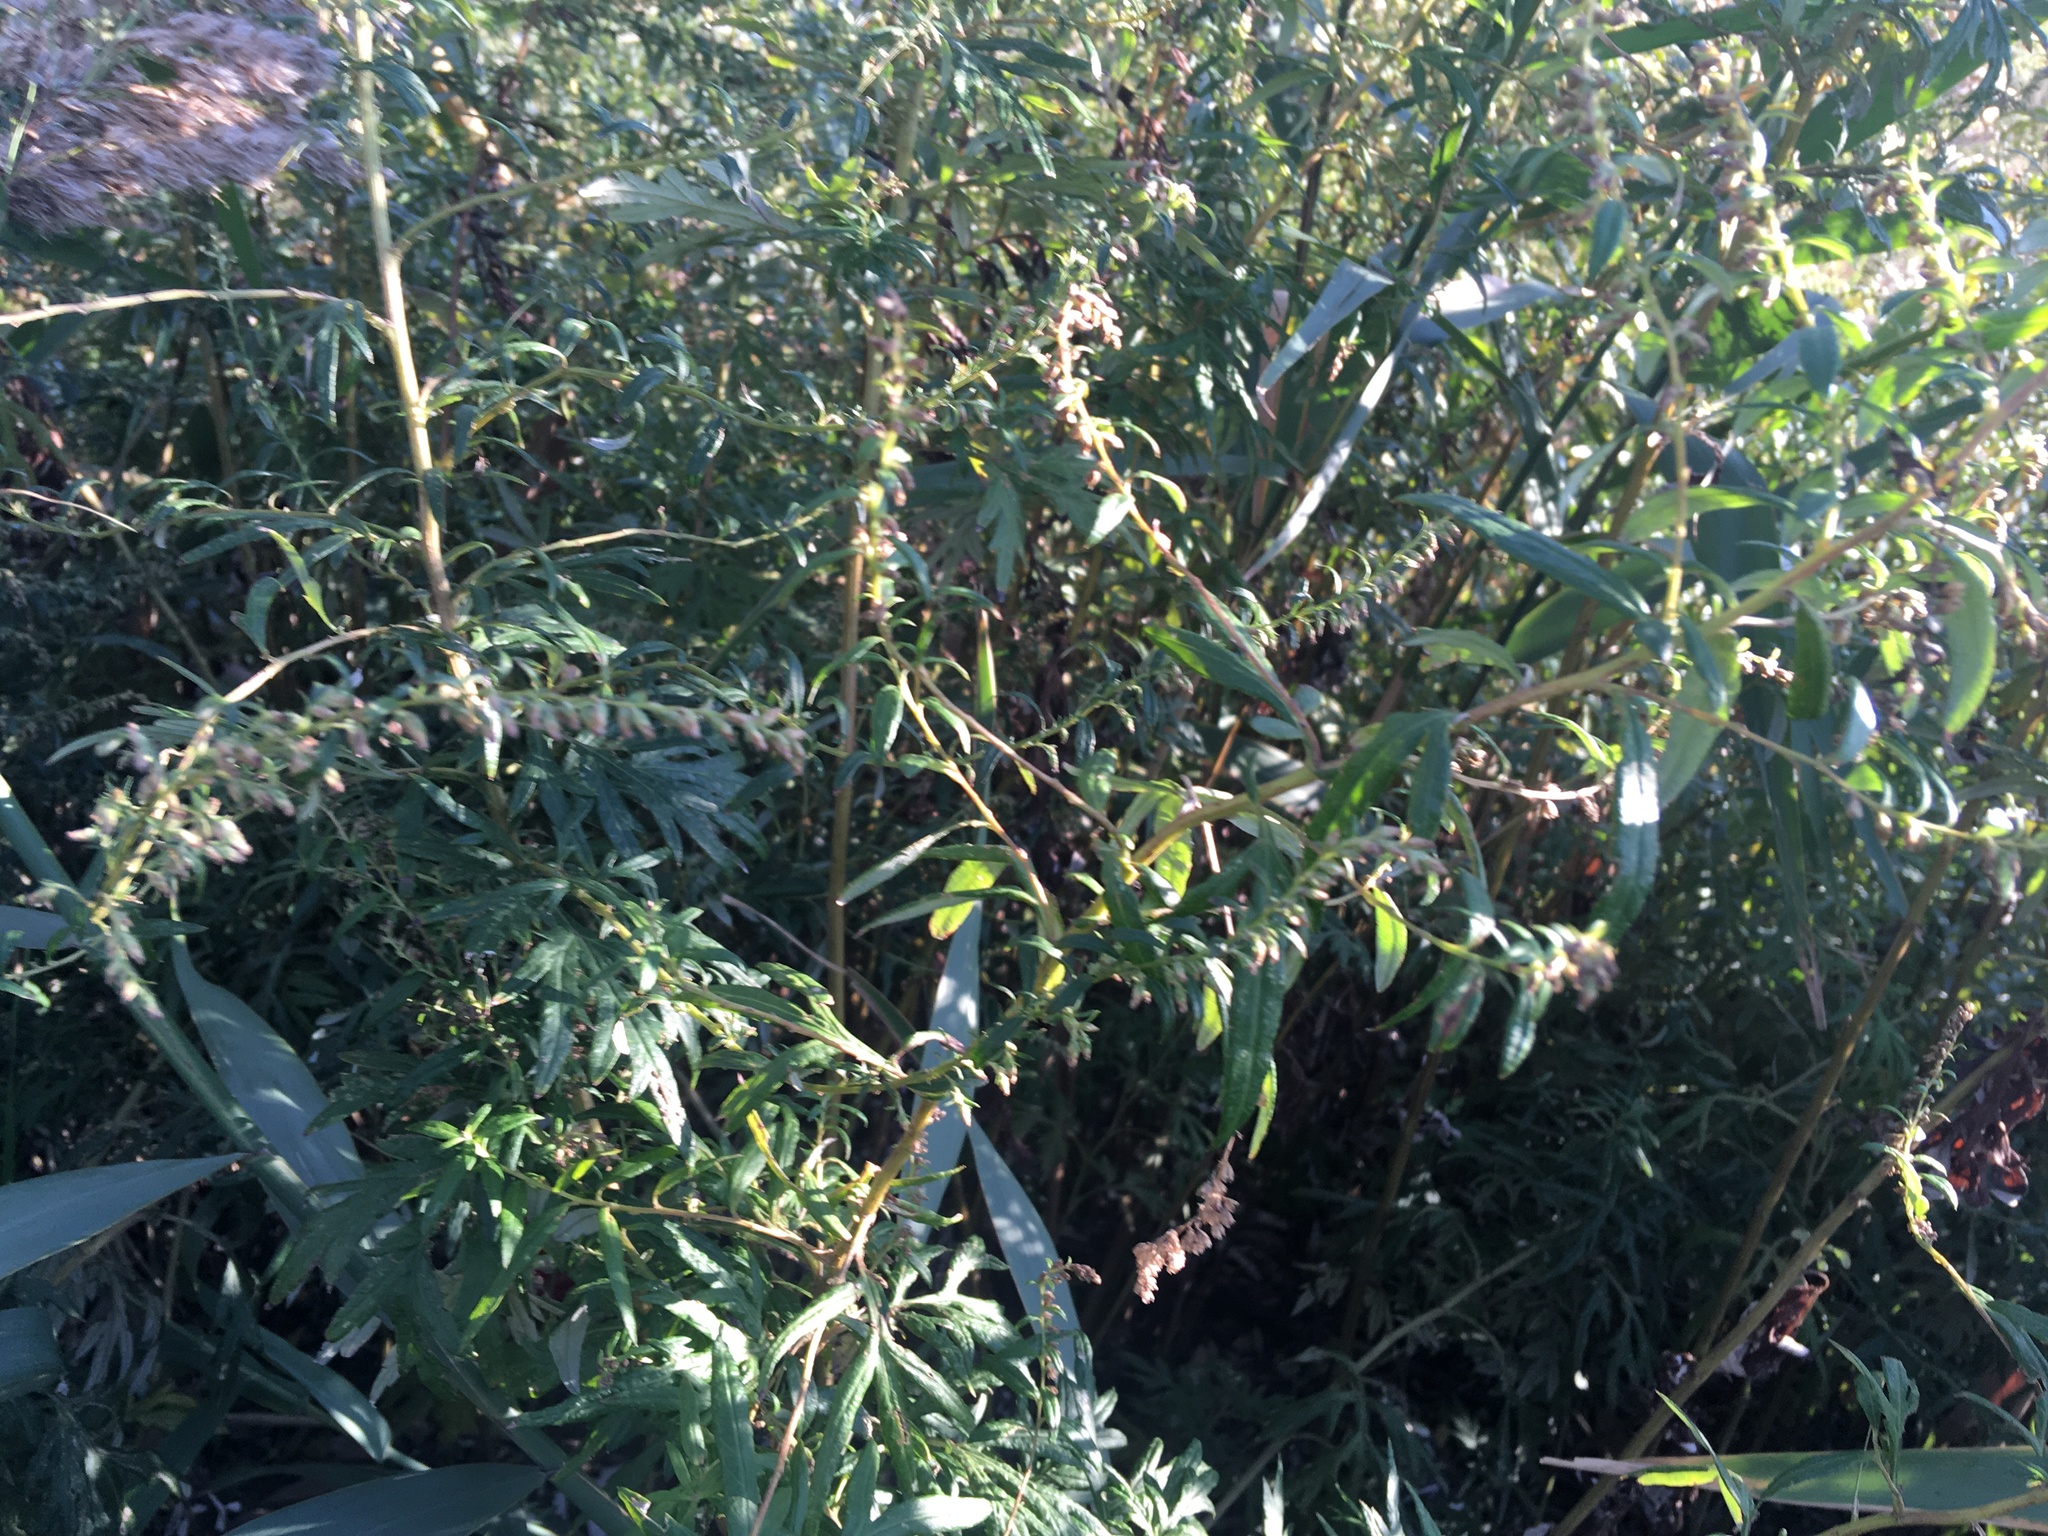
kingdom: Plantae
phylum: Tracheophyta
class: Magnoliopsida
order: Asterales
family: Asteraceae
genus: Artemisia
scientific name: Artemisia vulgaris
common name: Mugwort
